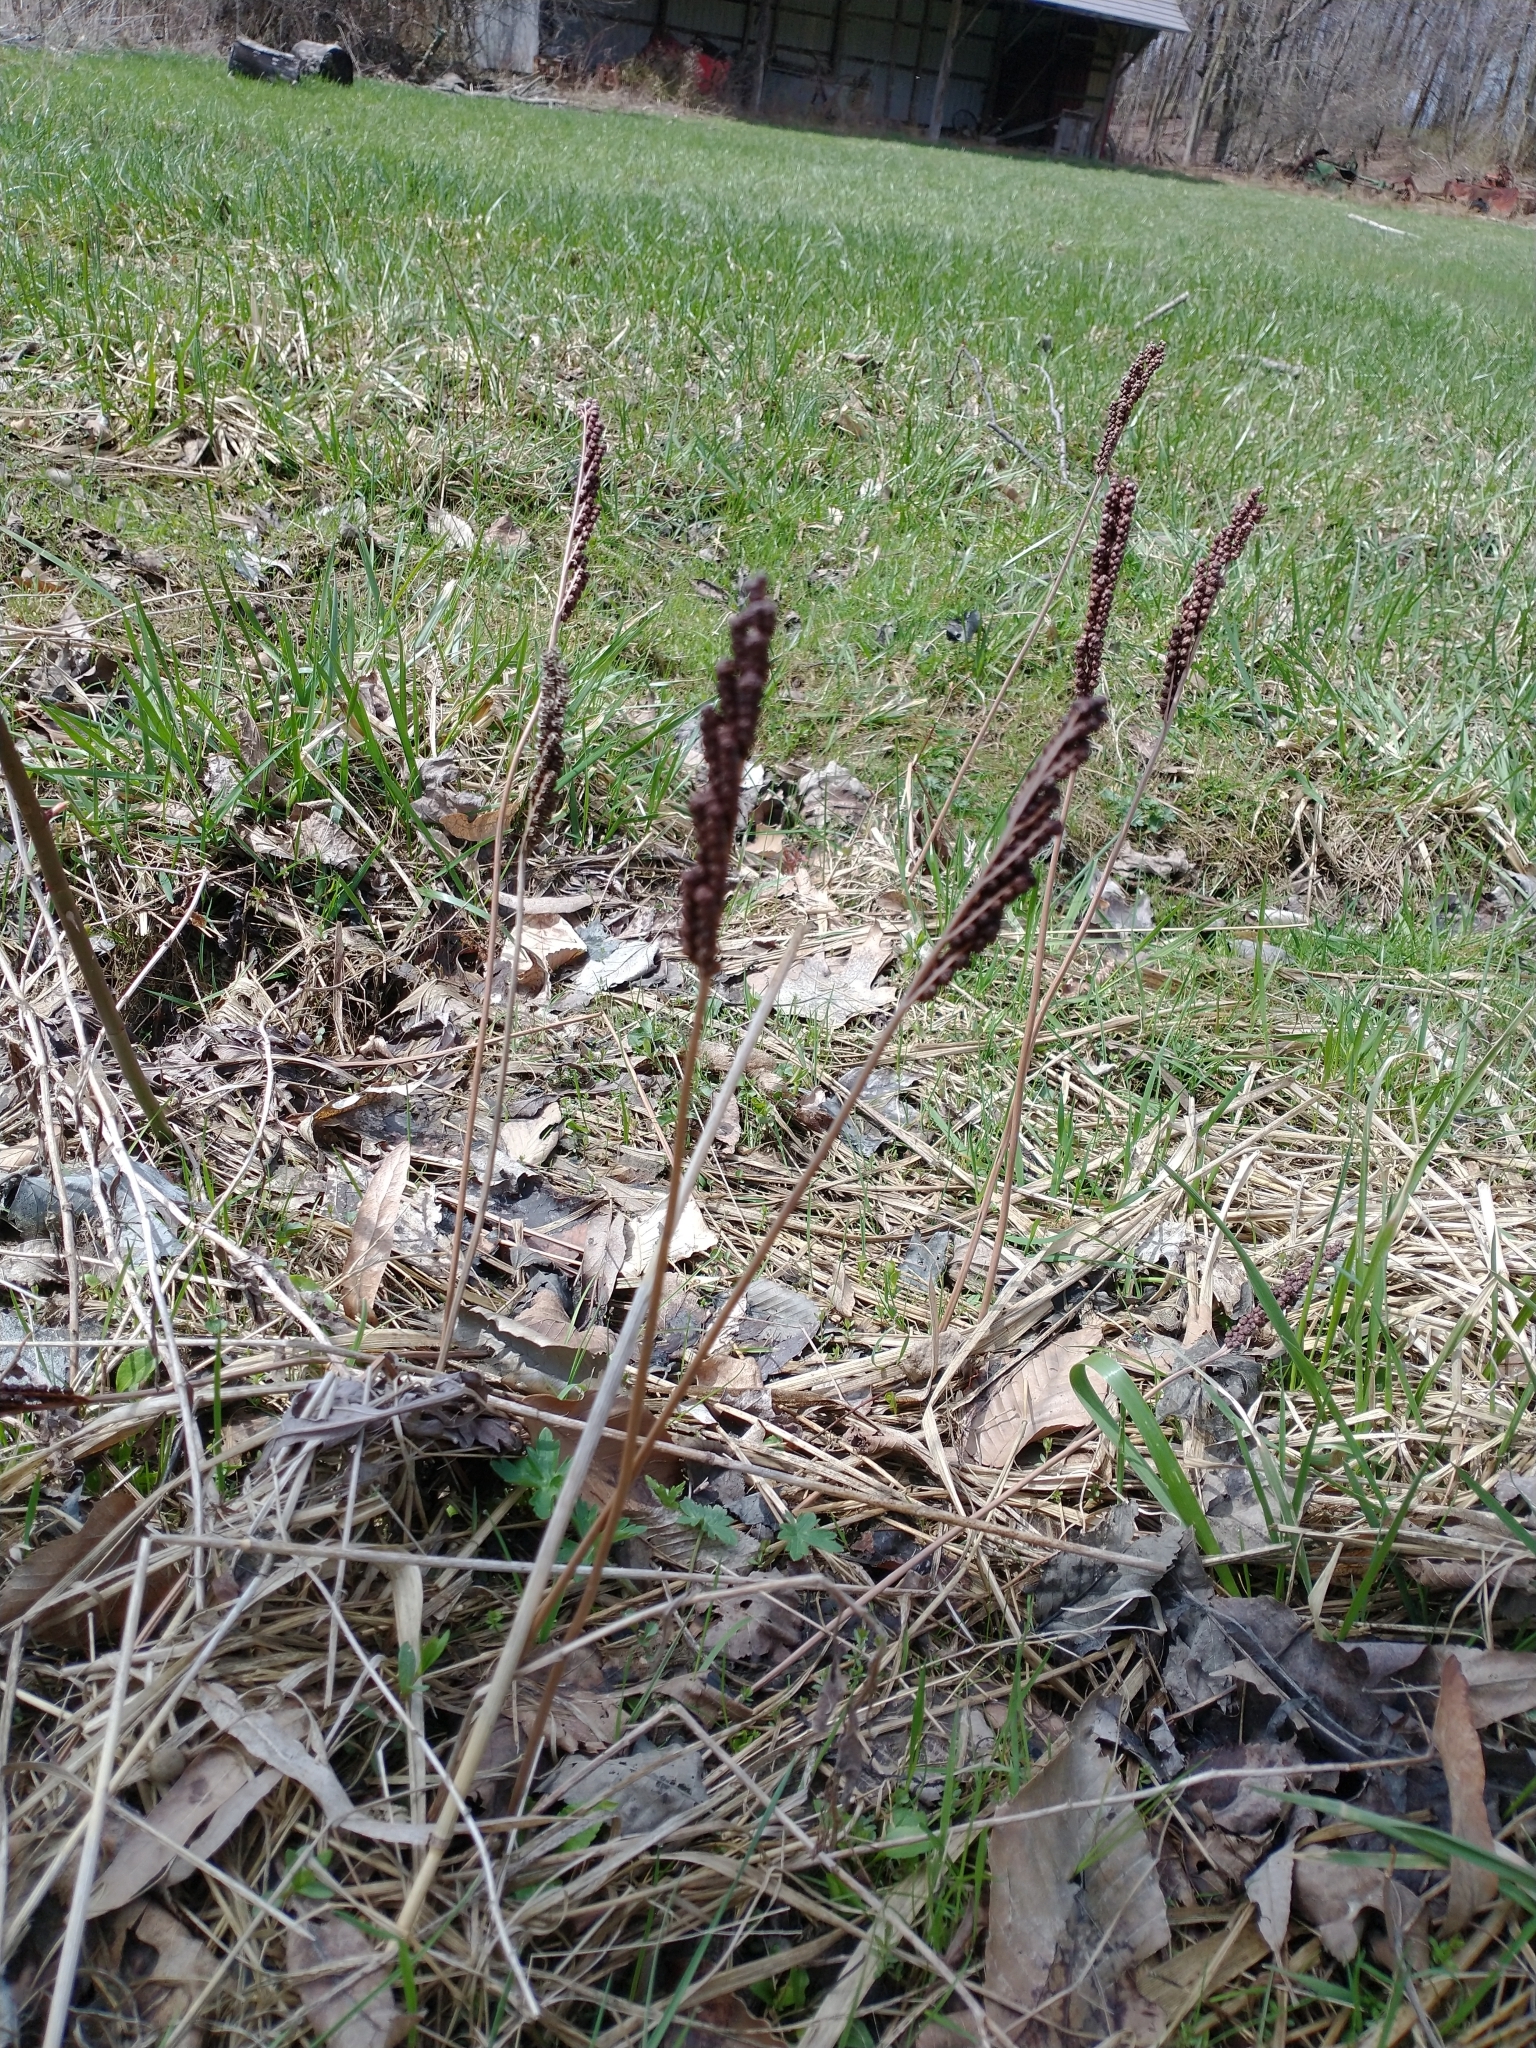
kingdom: Plantae
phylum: Tracheophyta
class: Polypodiopsida
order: Polypodiales
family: Onocleaceae
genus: Onoclea
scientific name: Onoclea sensibilis
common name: Sensitive fern
